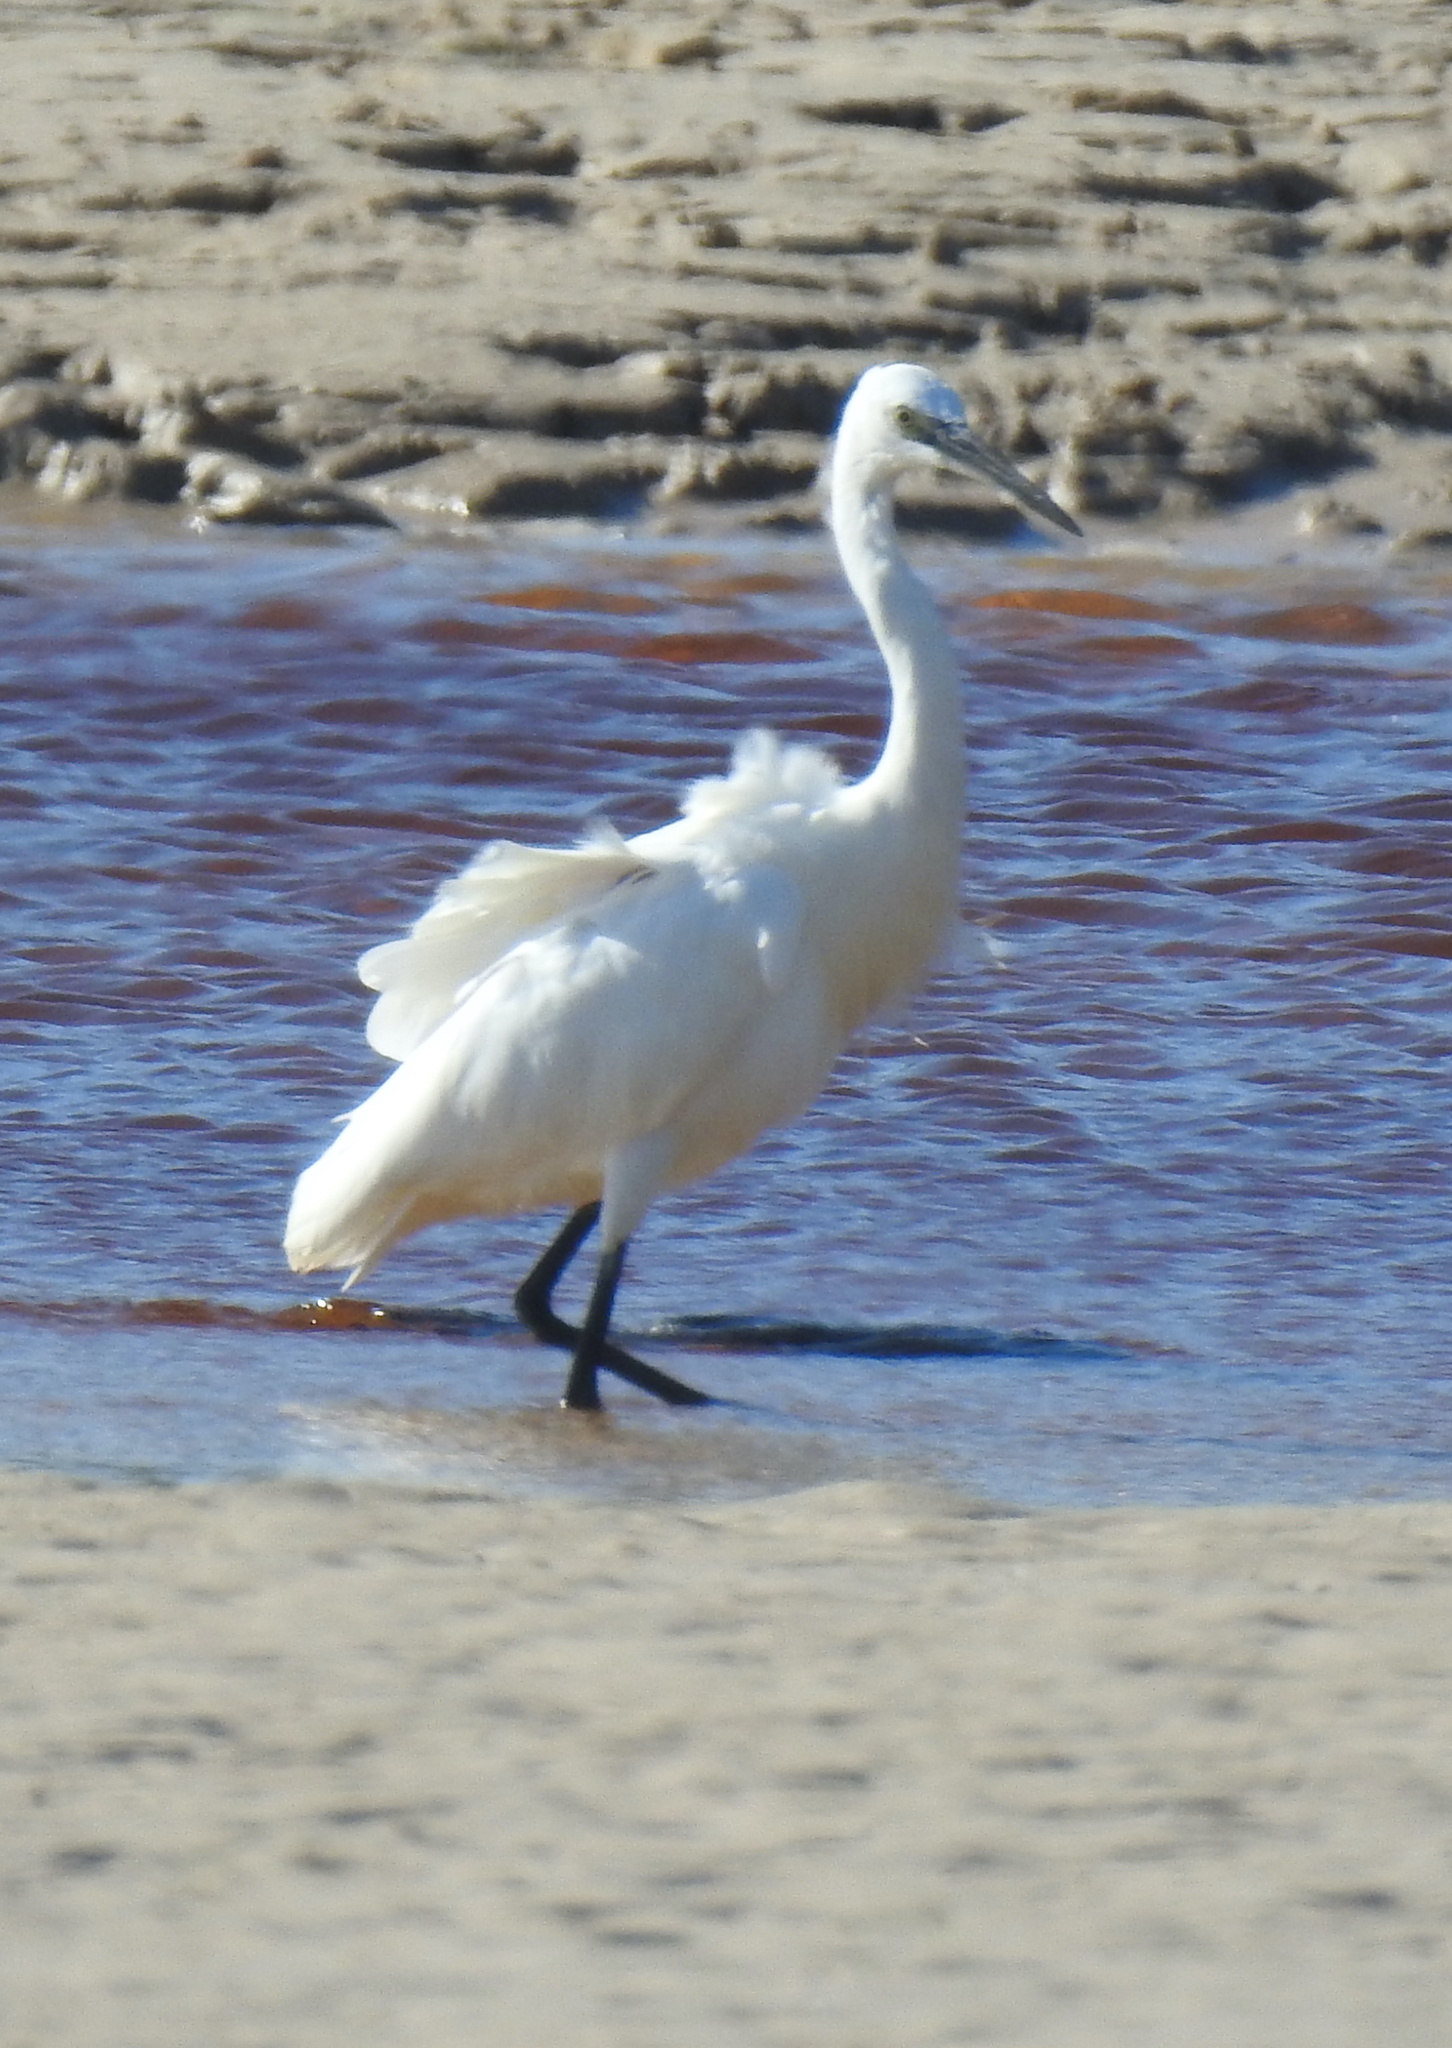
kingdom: Animalia
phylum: Chordata
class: Aves
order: Pelecaniformes
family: Ardeidae
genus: Egretta
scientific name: Egretta garzetta
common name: Little egret
